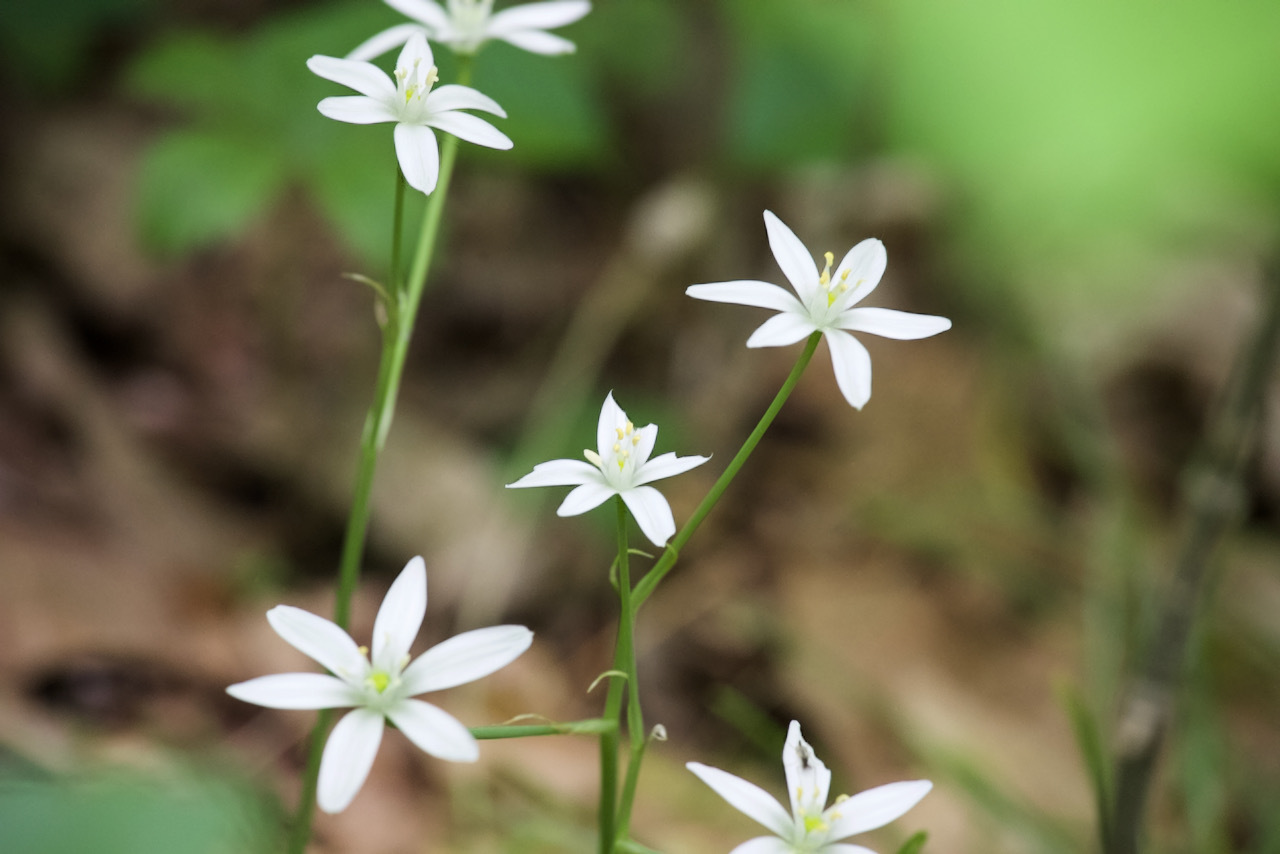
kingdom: Plantae
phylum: Tracheophyta
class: Liliopsida
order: Asparagales
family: Asparagaceae
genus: Ornithogalum
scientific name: Ornithogalum umbellatum
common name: Garden star-of-bethlehem
